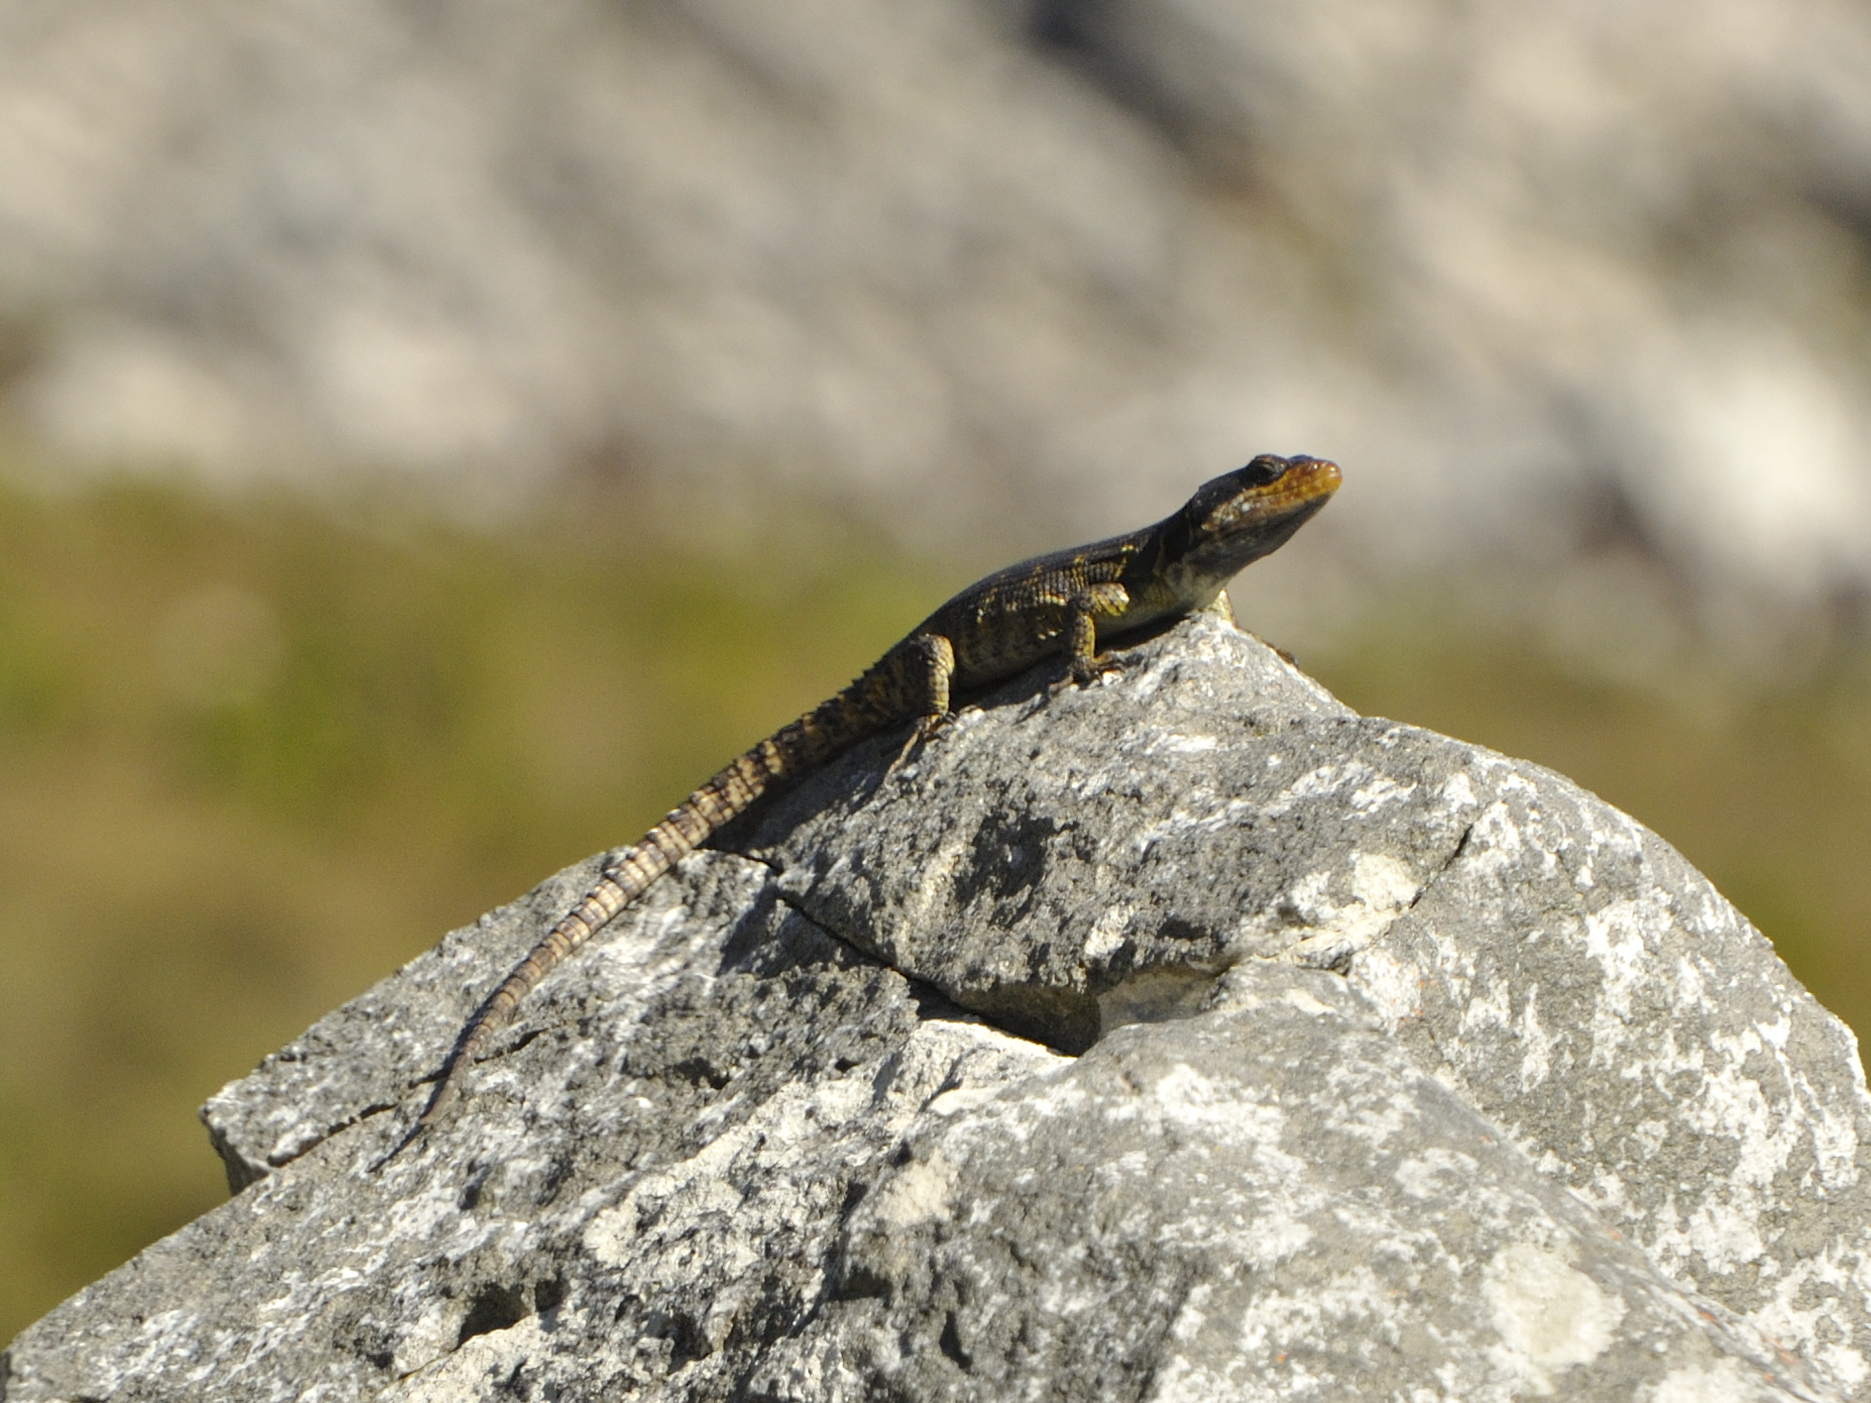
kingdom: Animalia
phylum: Chordata
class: Squamata
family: Cordylidae
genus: Pseudocordylus
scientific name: Pseudocordylus microlepidotus
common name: Cape crag lizard
